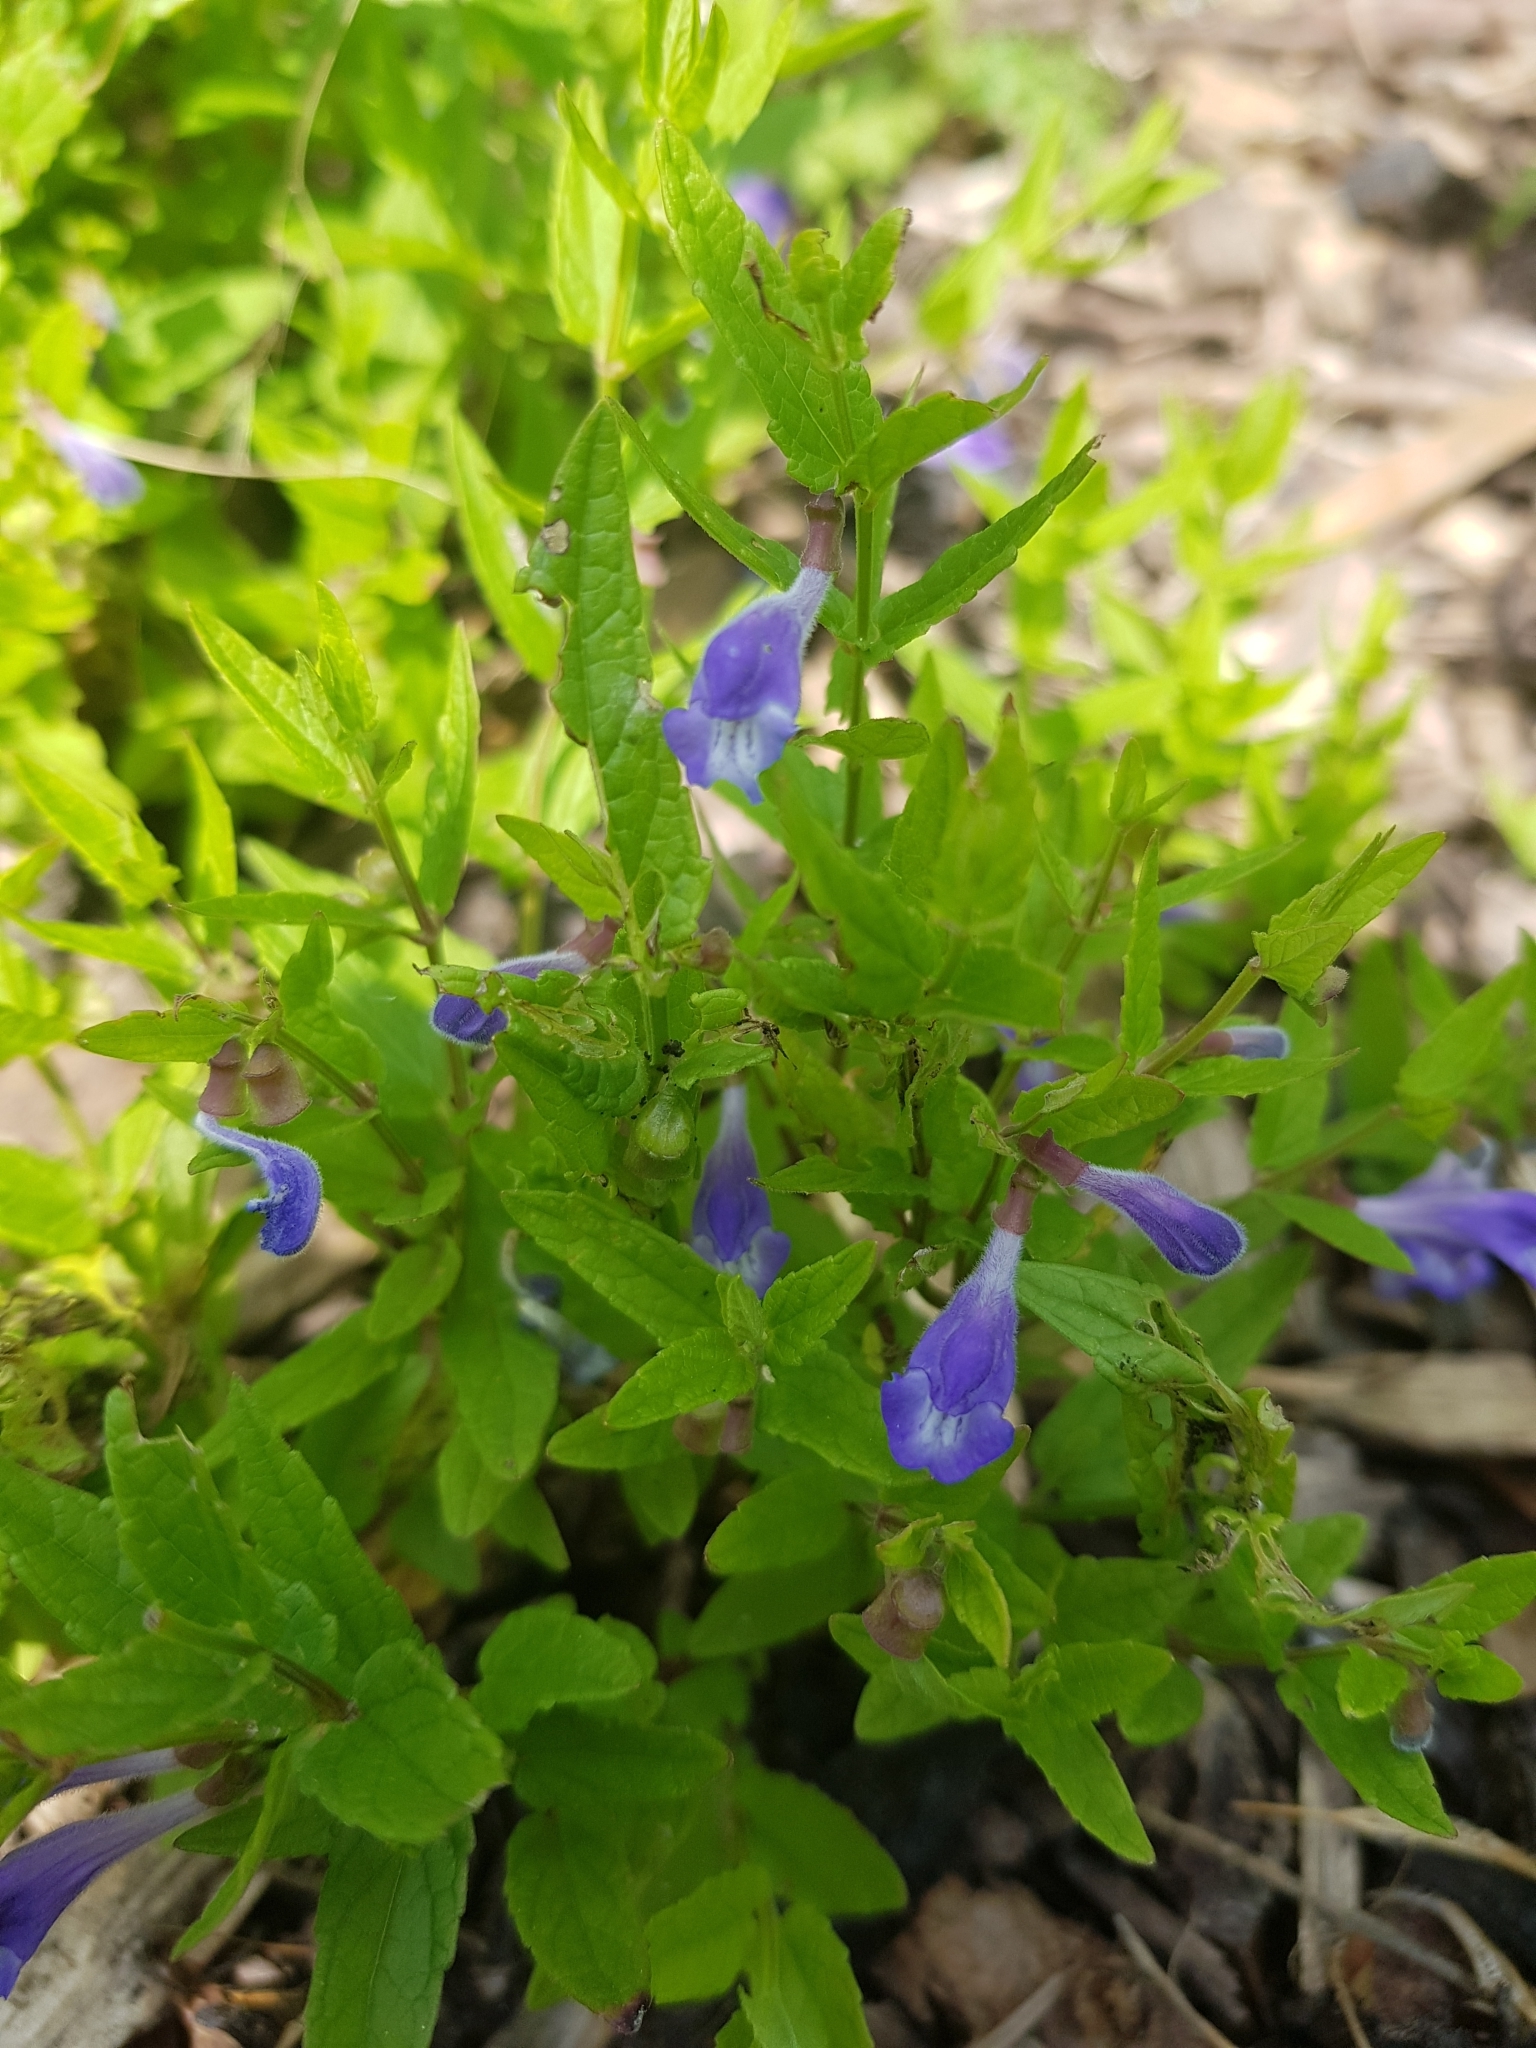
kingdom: Plantae
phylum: Tracheophyta
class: Magnoliopsida
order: Lamiales
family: Lamiaceae
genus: Scutellaria
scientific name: Scutellaria galericulata
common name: Skullcap
